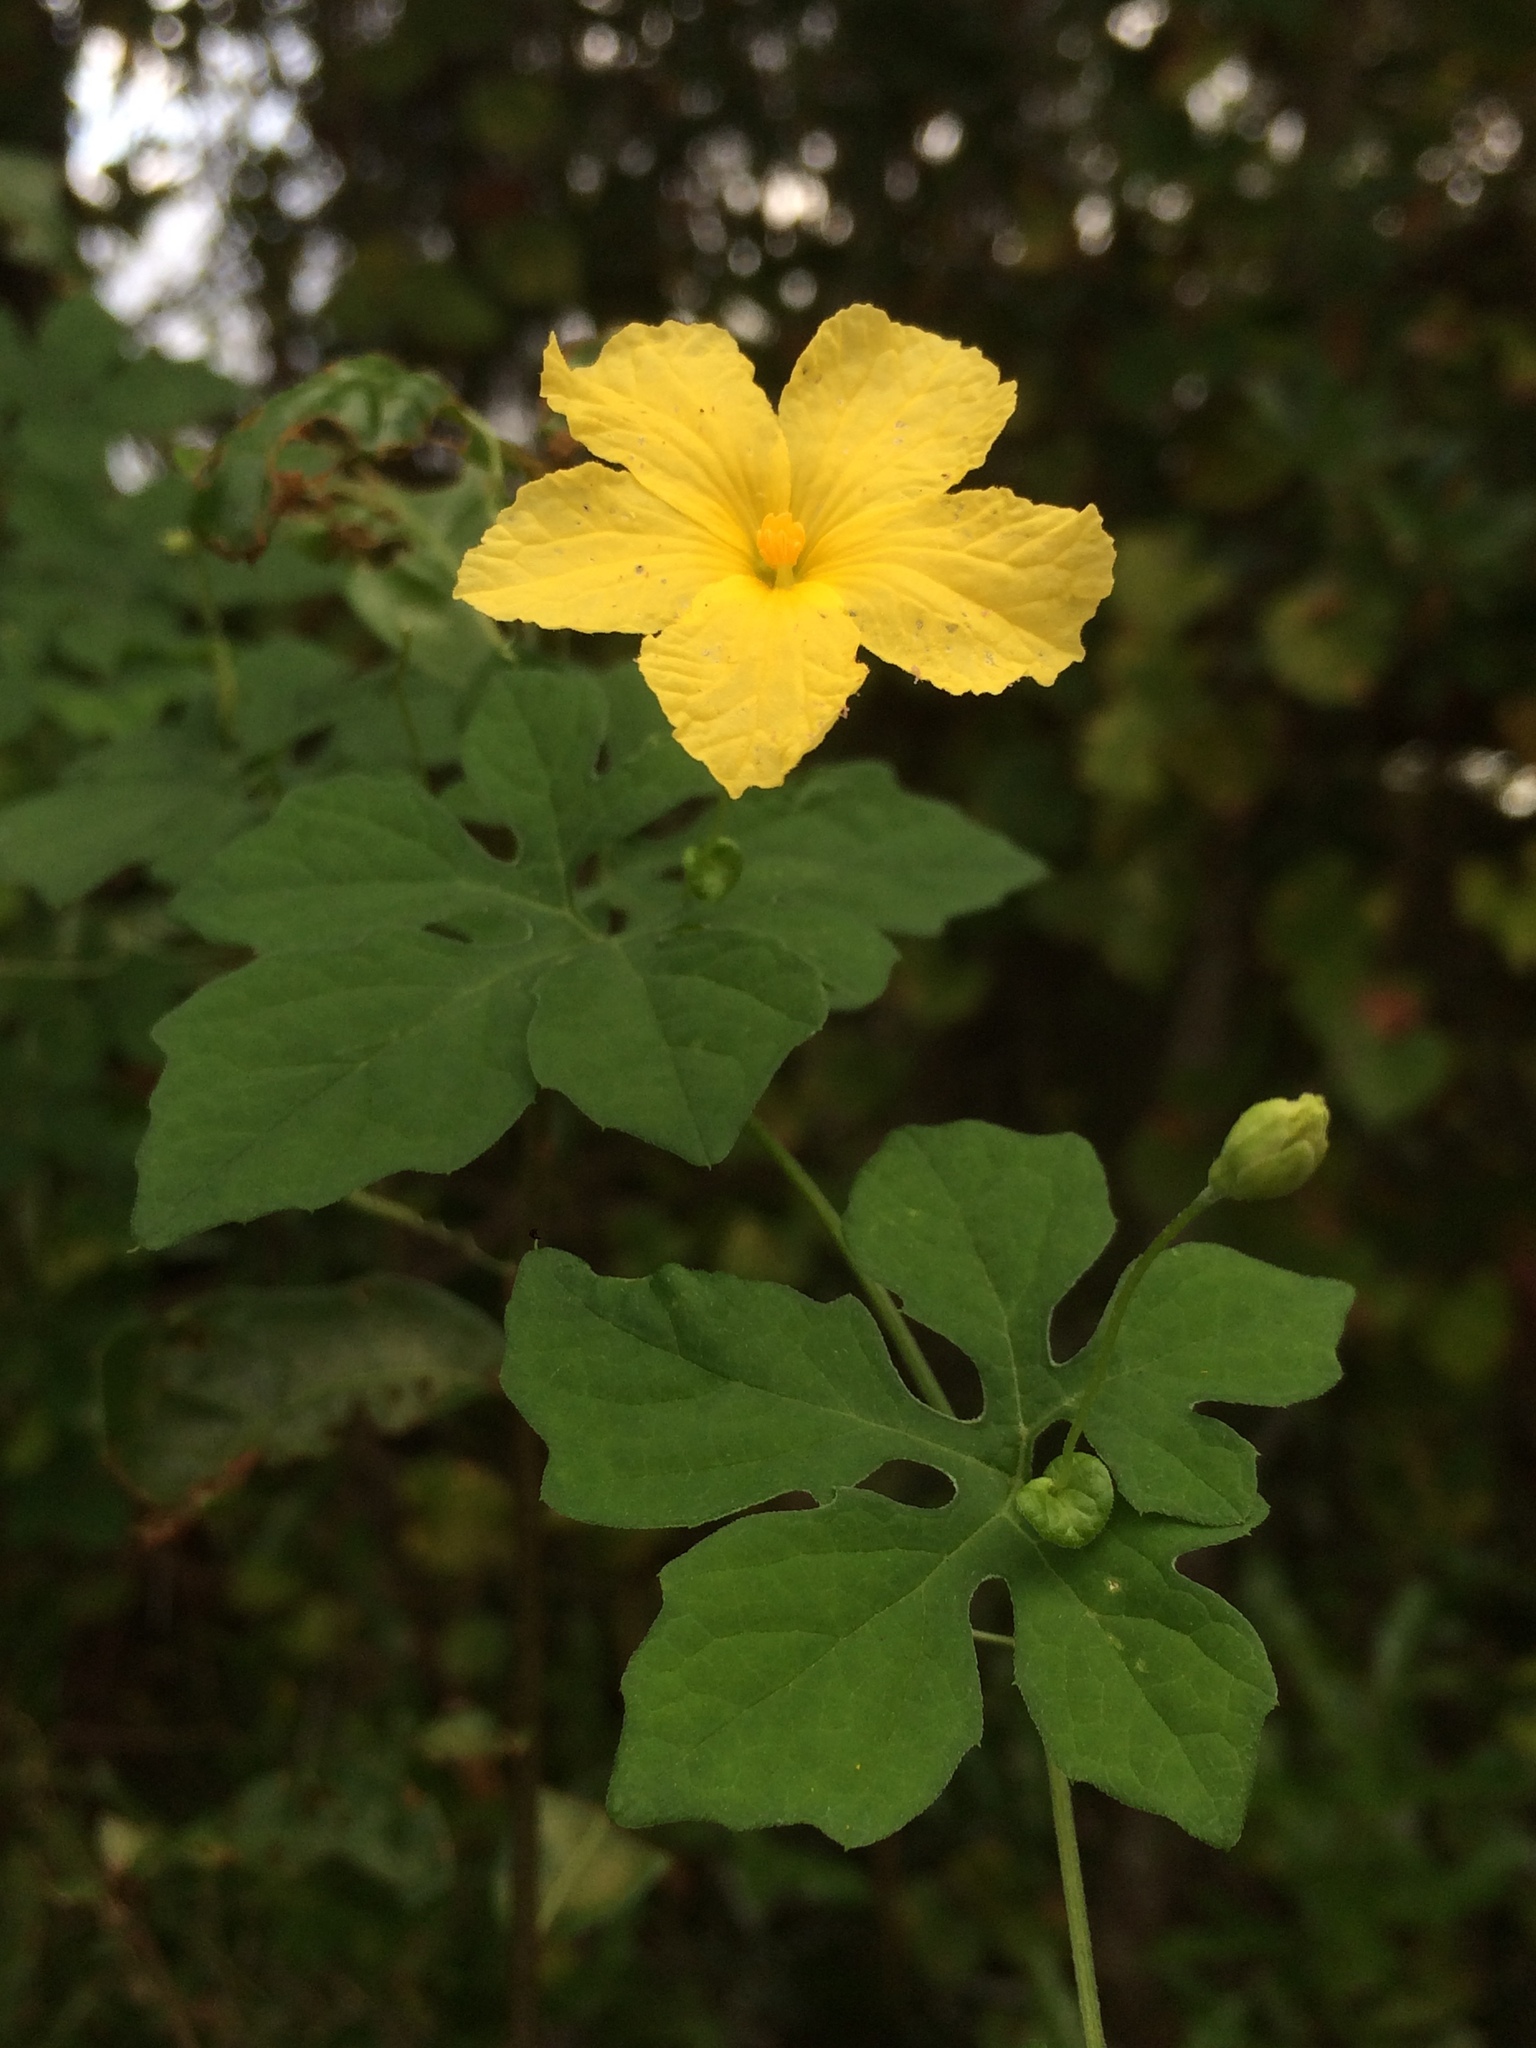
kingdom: Plantae
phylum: Tracheophyta
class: Magnoliopsida
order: Cucurbitales
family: Cucurbitaceae
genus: Momordica
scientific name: Momordica charantia
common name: Balsampear
